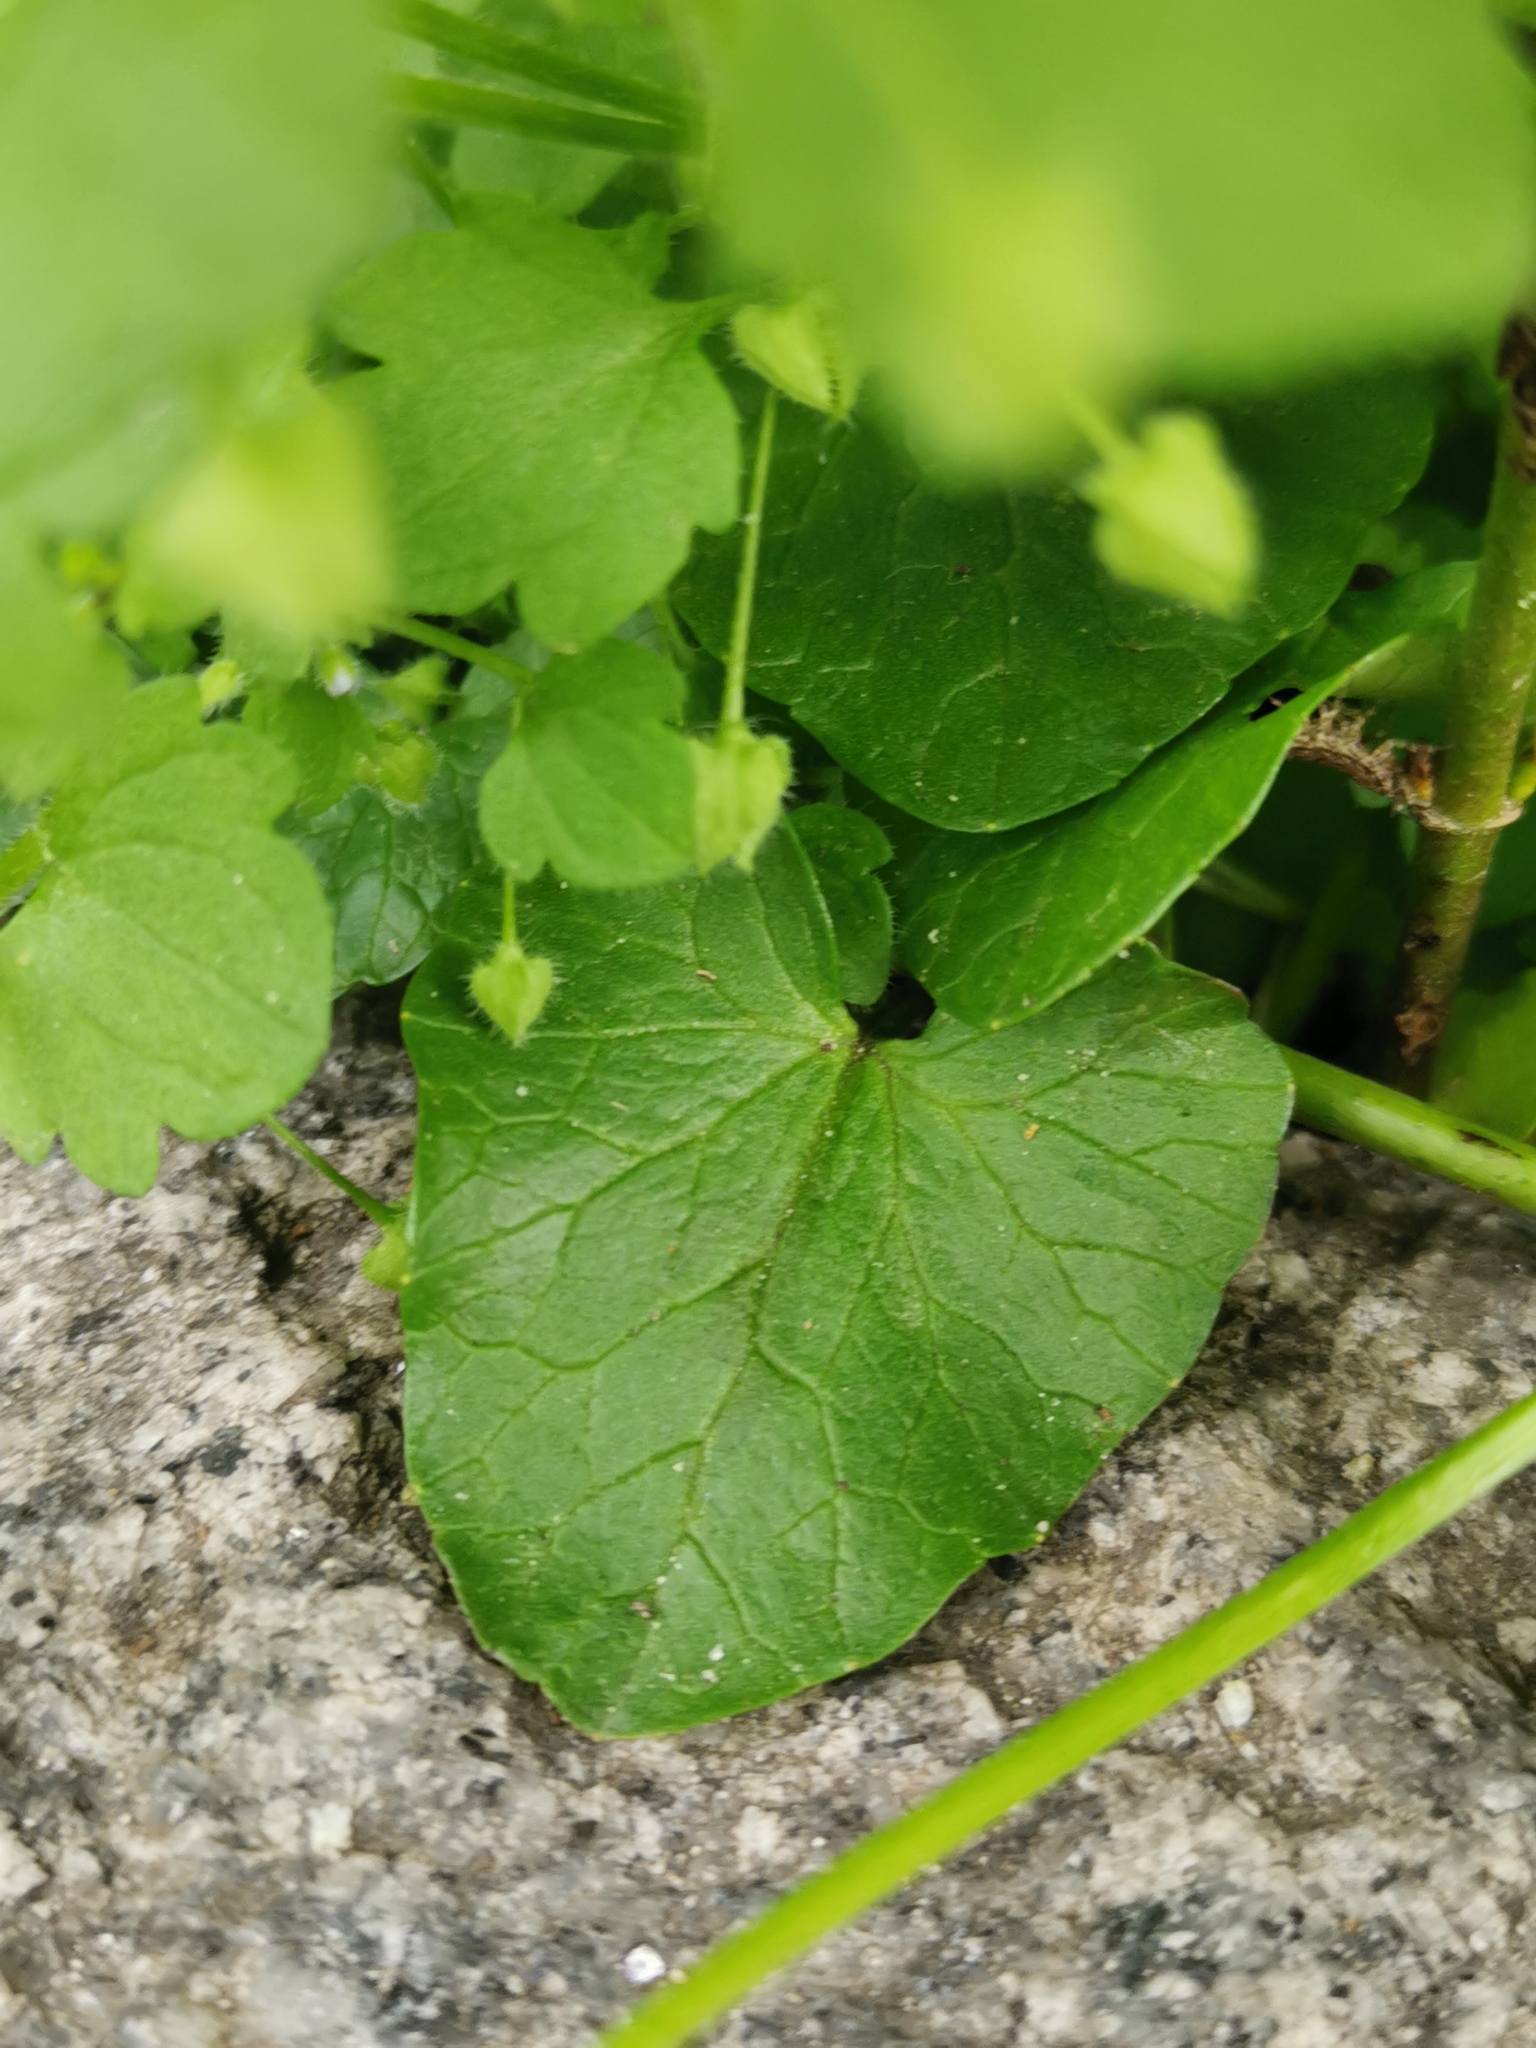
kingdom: Plantae
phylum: Tracheophyta
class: Magnoliopsida
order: Ranunculales
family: Ranunculaceae
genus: Ficaria
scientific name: Ficaria verna
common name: Lesser celandine
